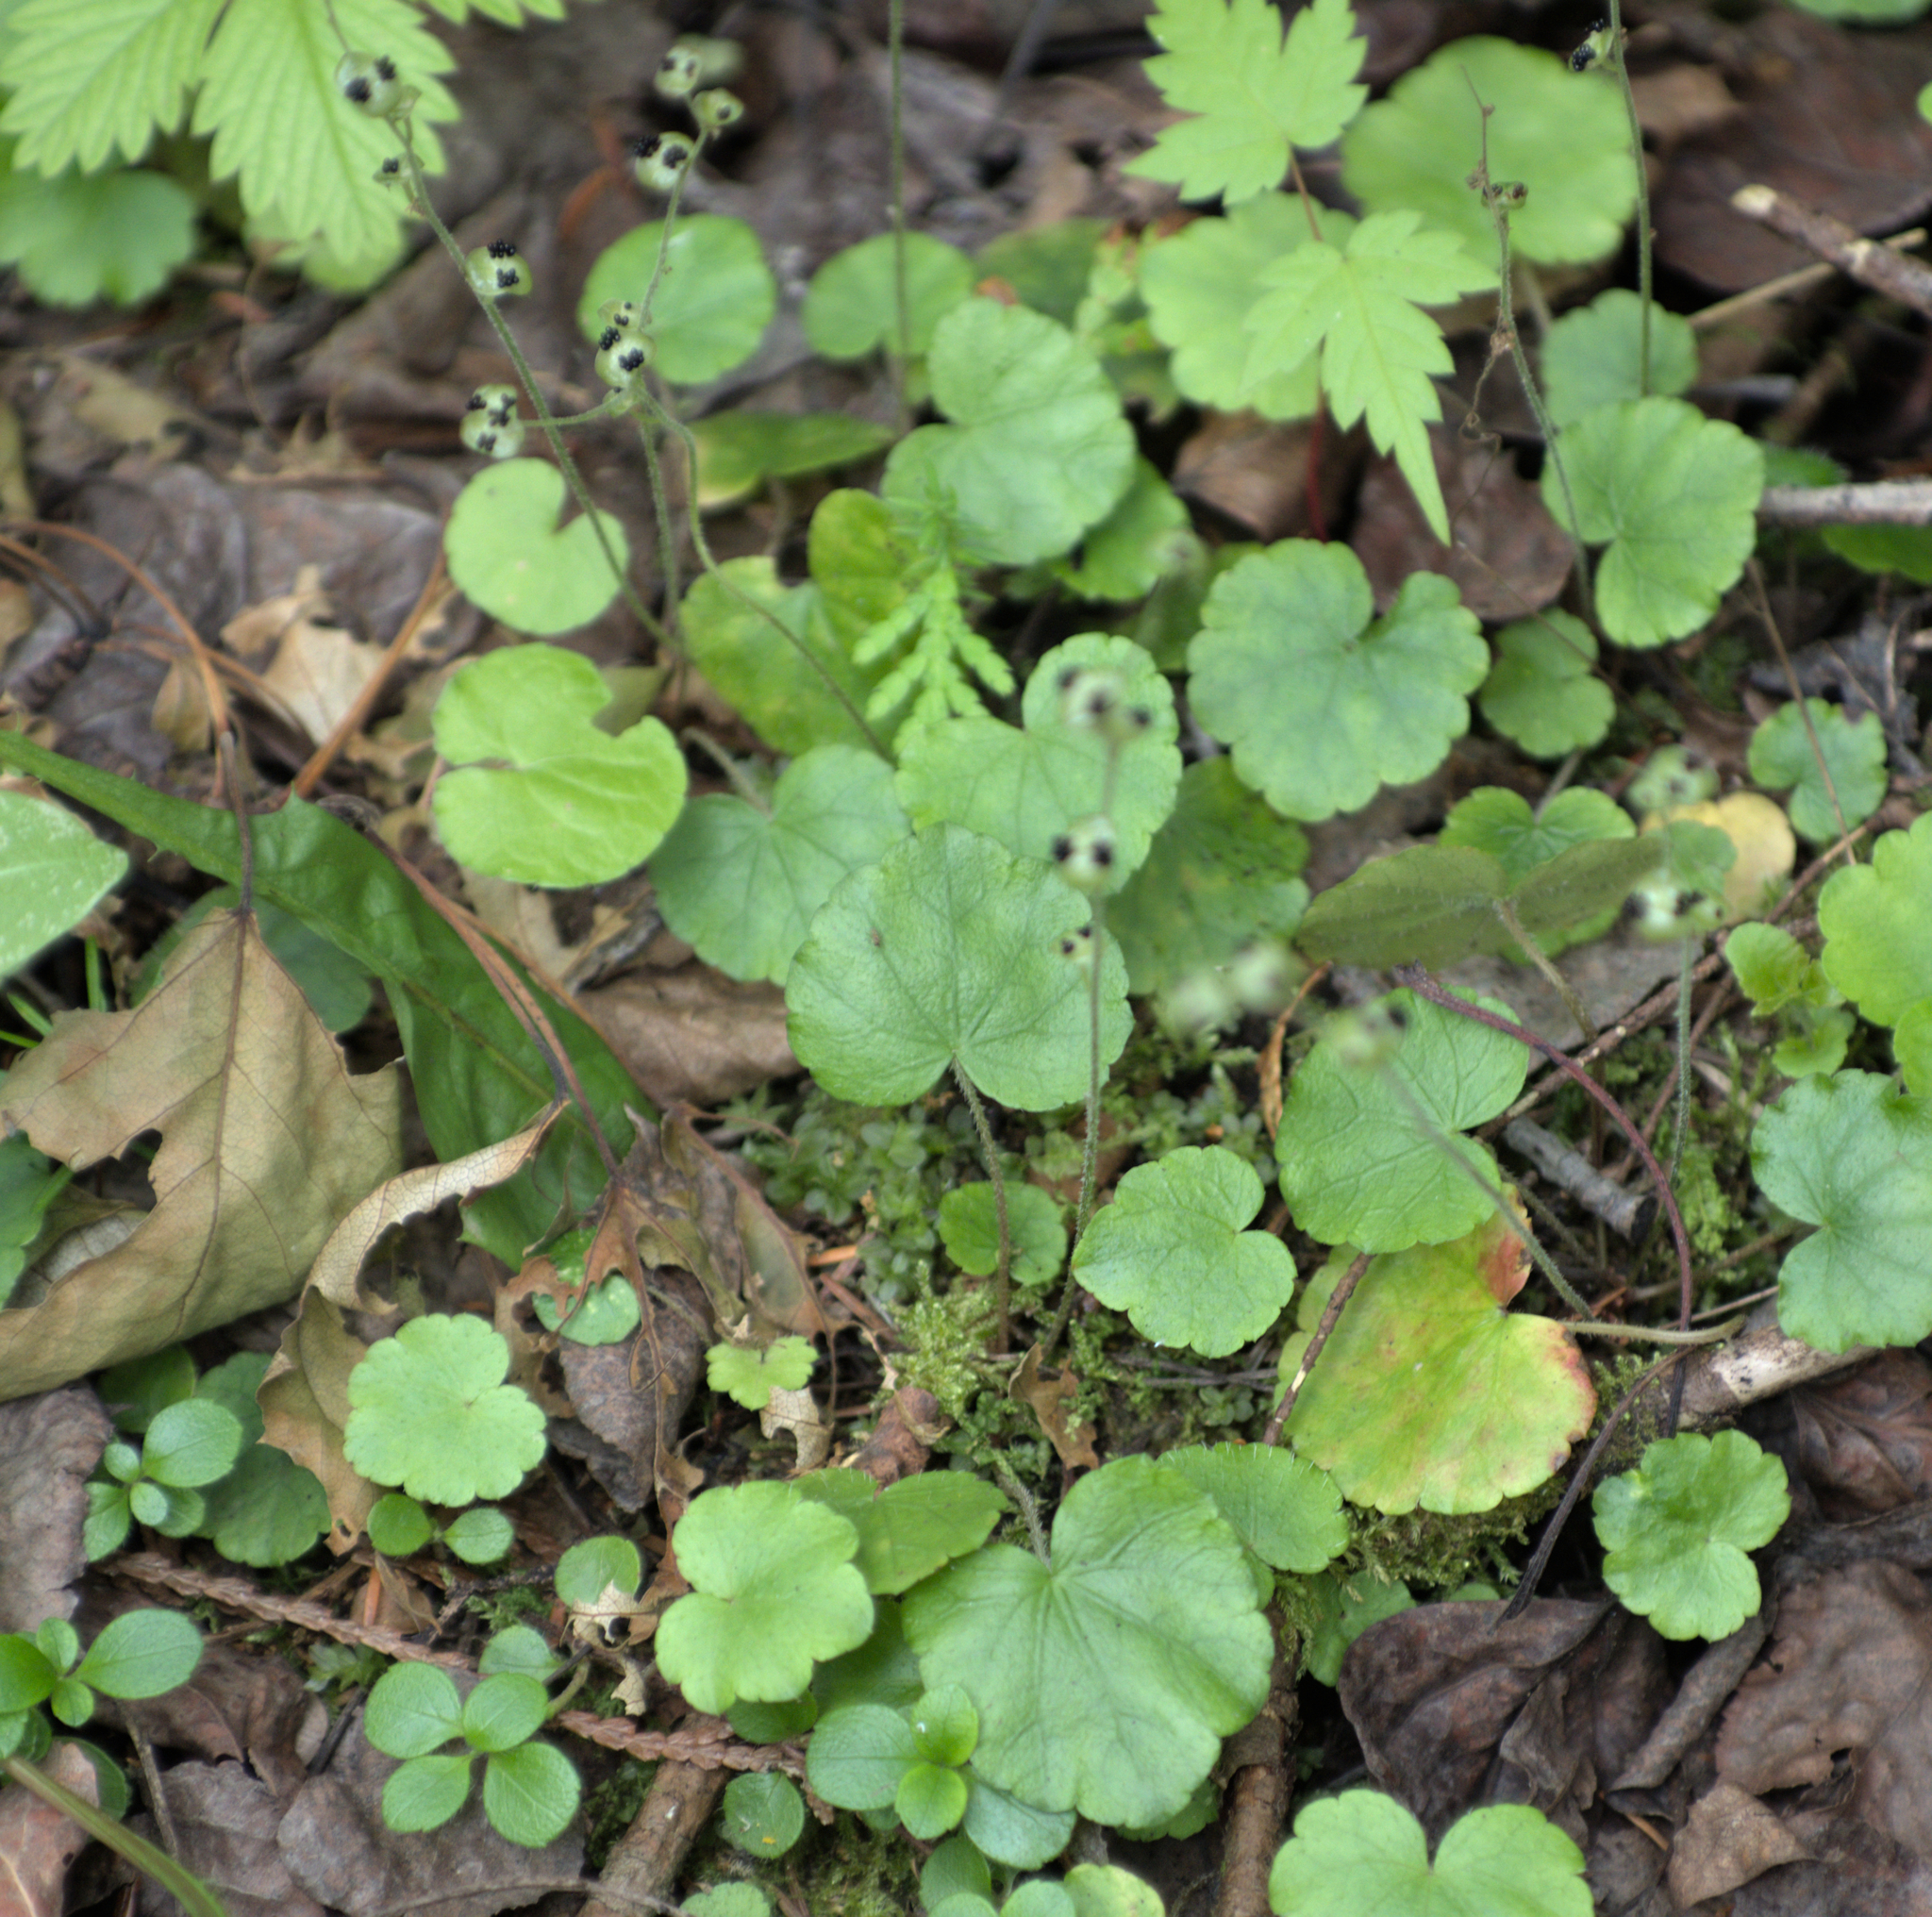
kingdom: Plantae
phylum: Tracheophyta
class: Magnoliopsida
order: Saxifragales
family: Saxifragaceae
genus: Mitella
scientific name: Mitella nuda
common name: Bare-stemmed bishop's-cap
